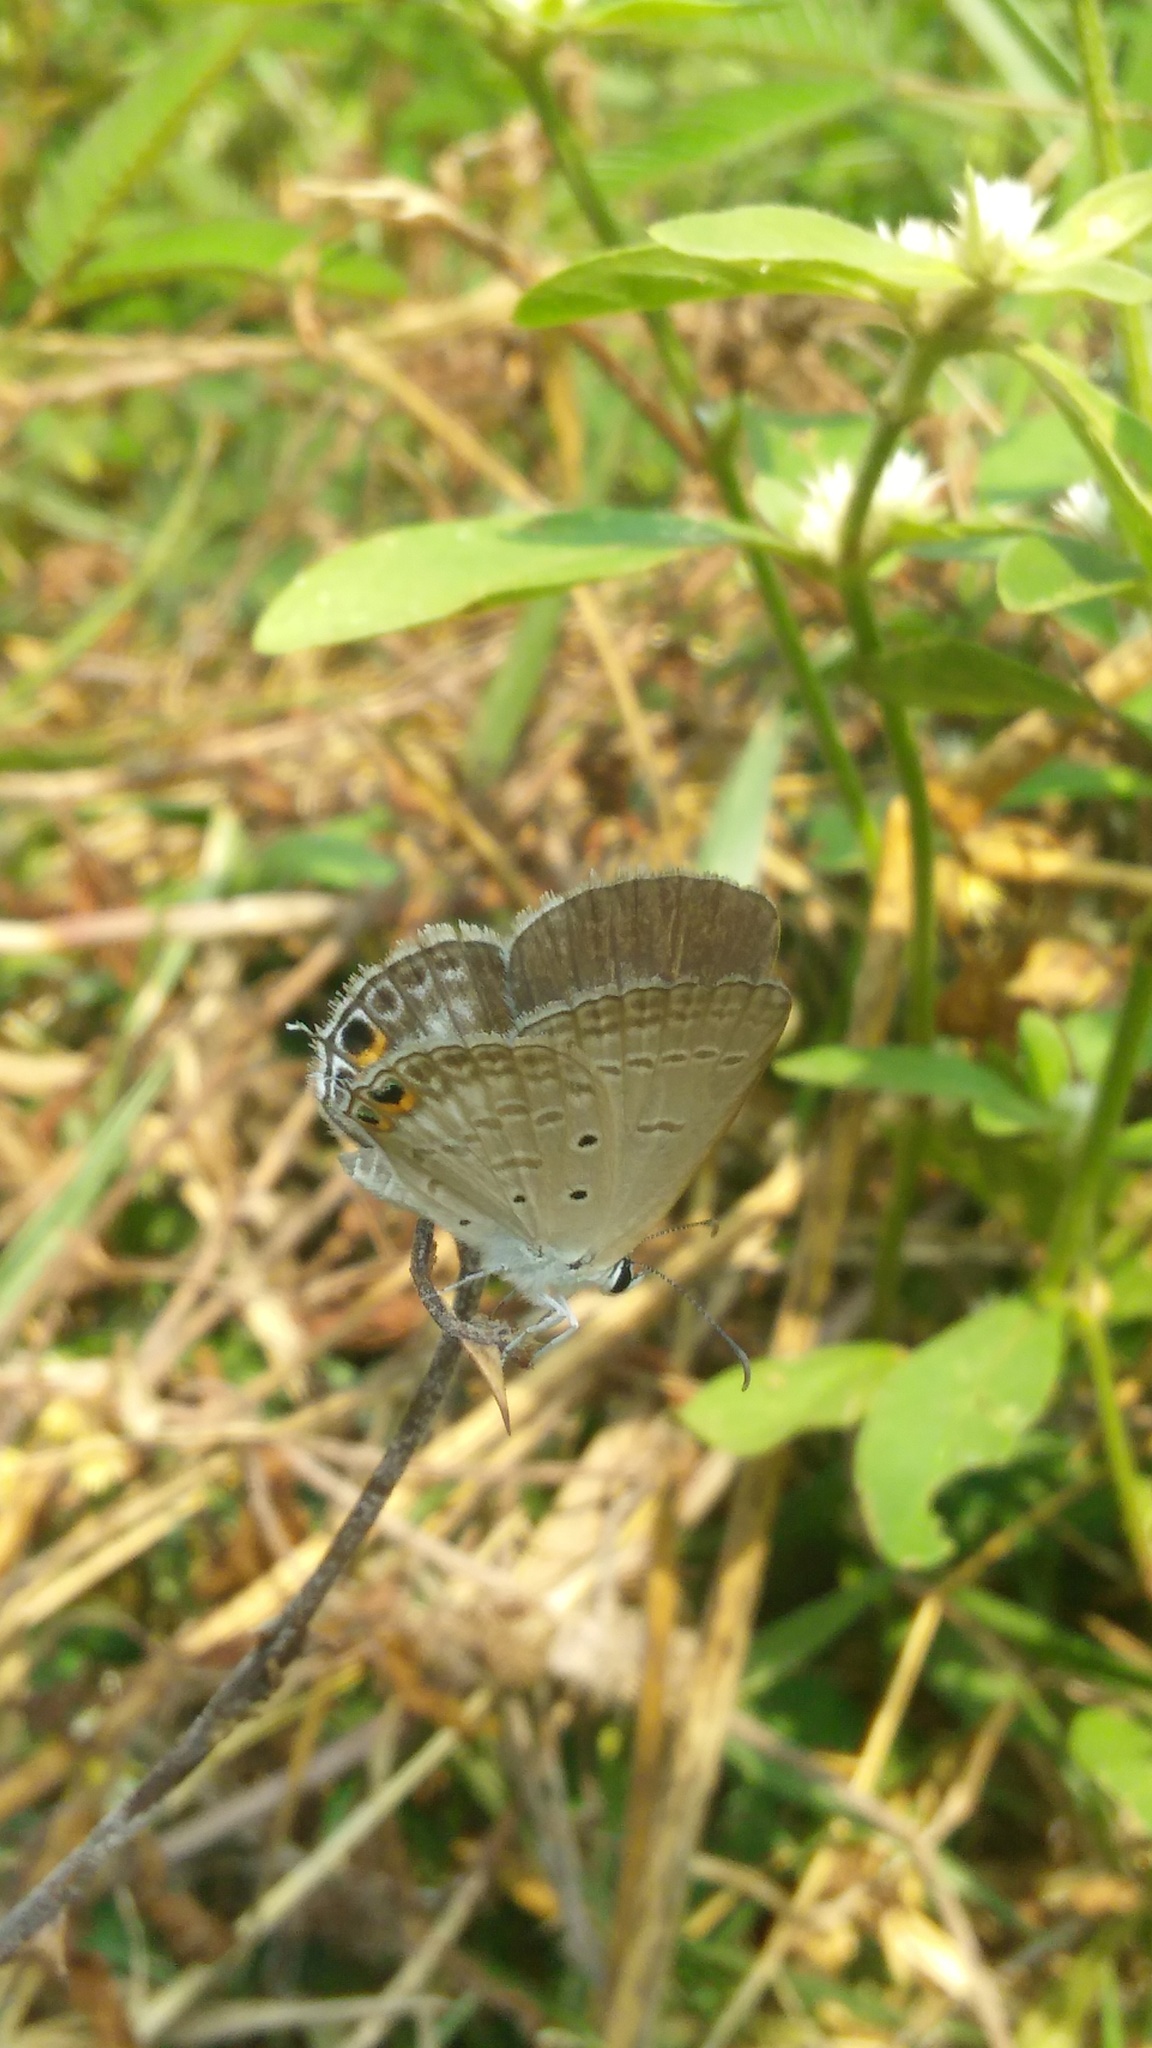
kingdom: Animalia
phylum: Arthropoda
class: Insecta
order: Lepidoptera
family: Lycaenidae
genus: Euchrysops
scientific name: Euchrysops cnejus
